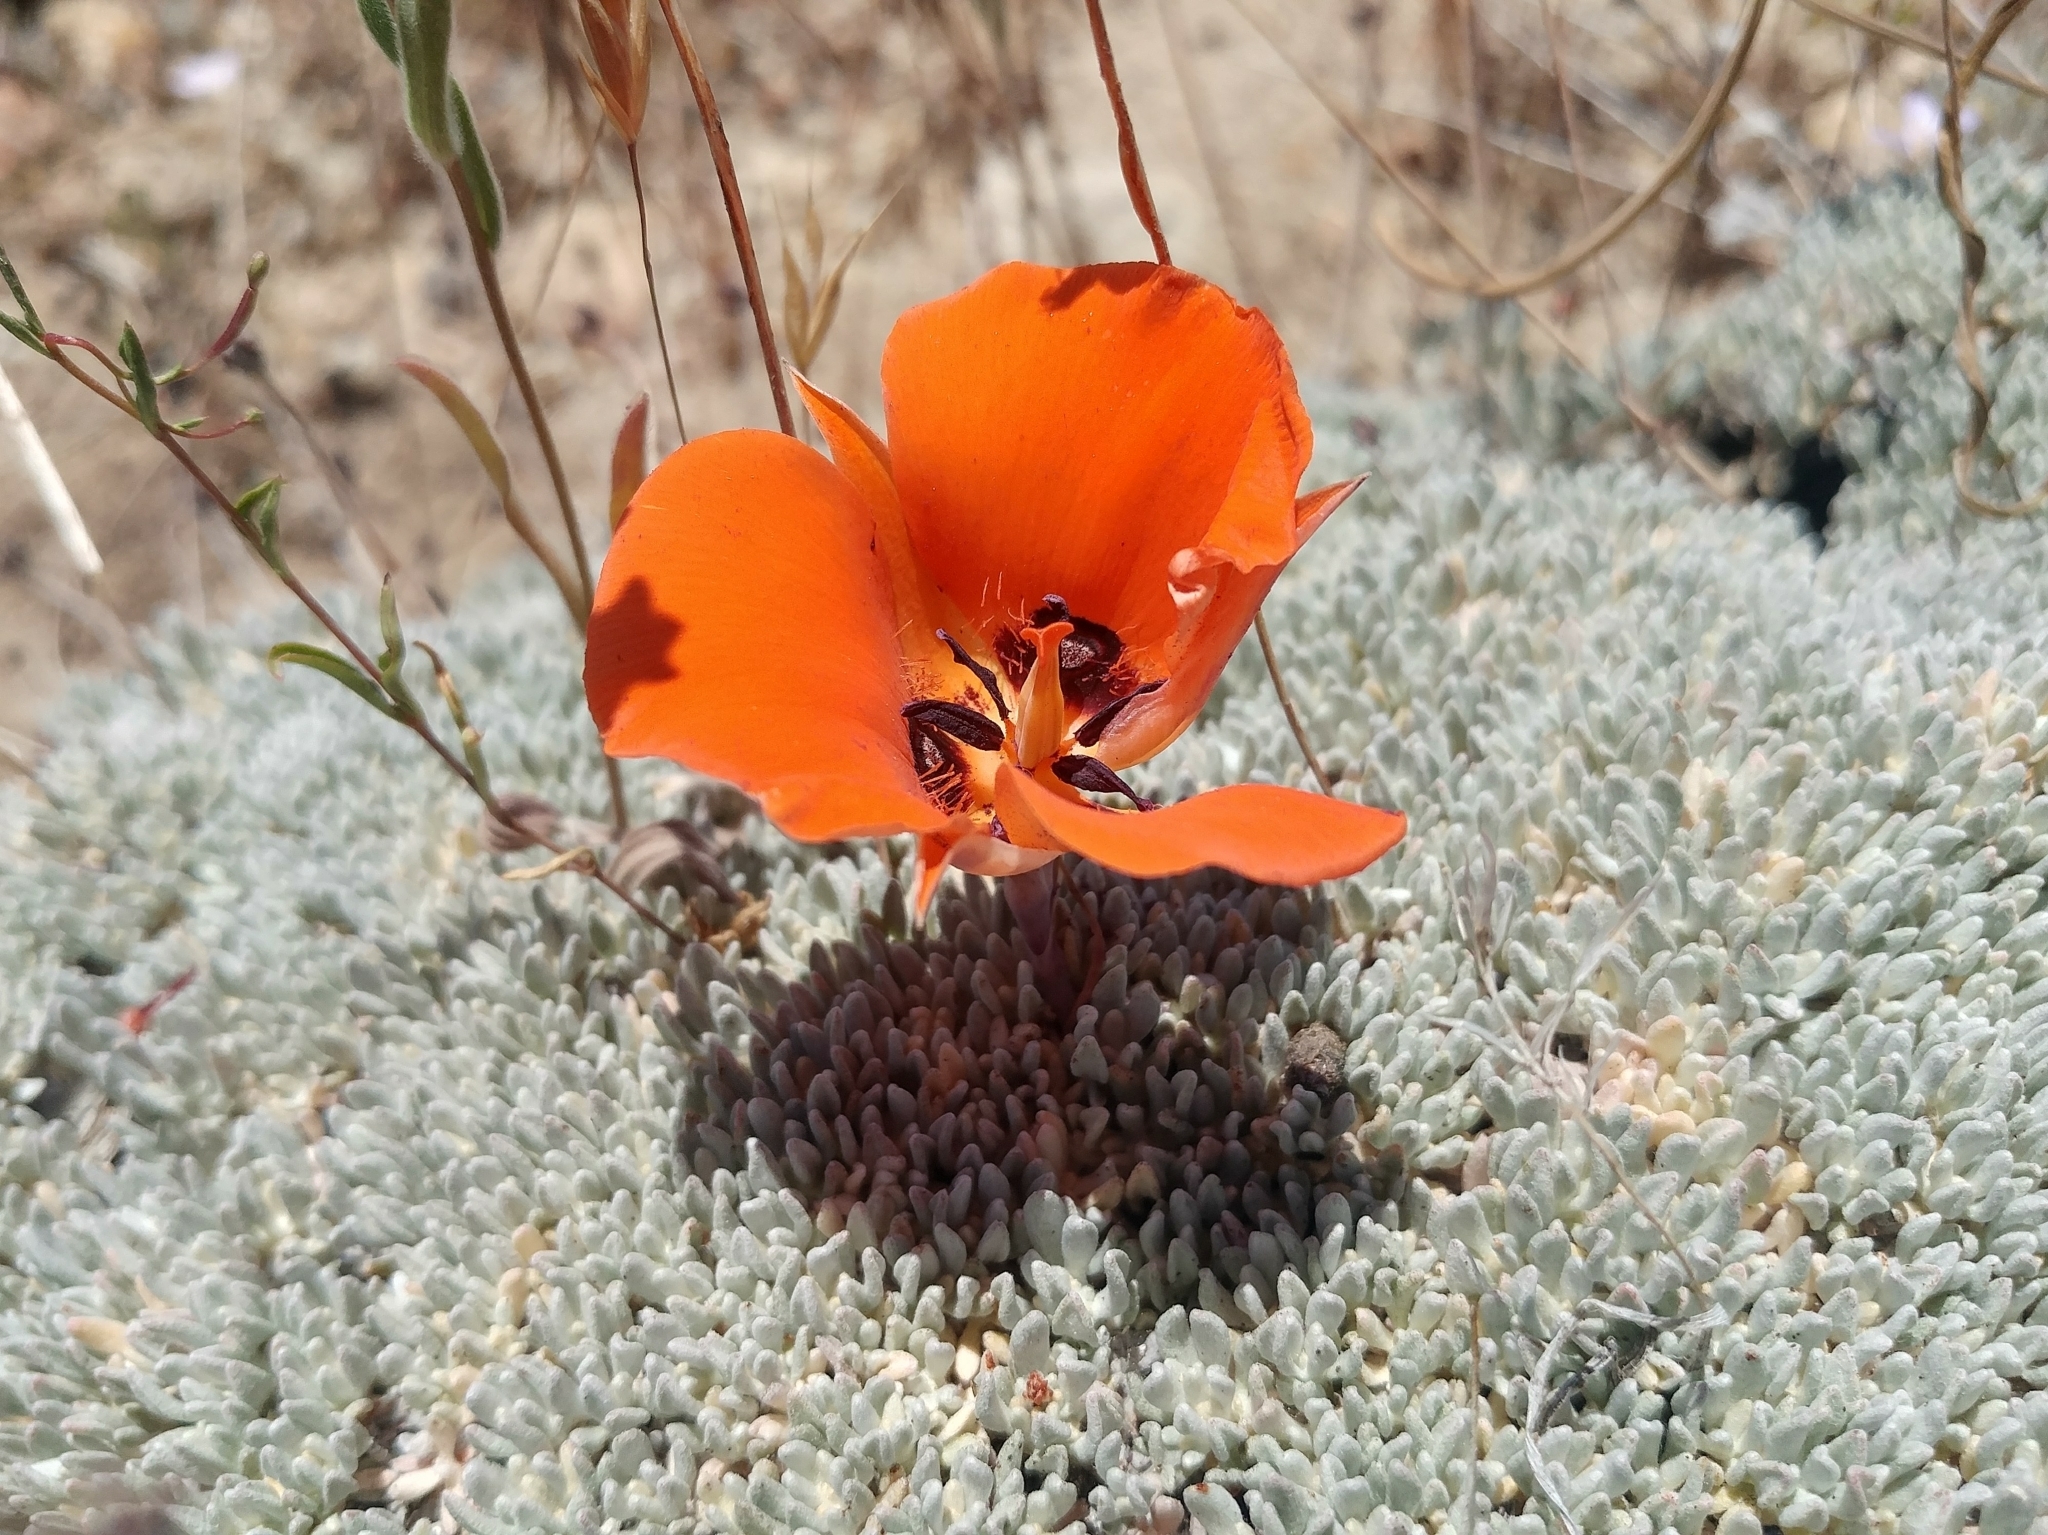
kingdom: Plantae
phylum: Tracheophyta
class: Liliopsida
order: Liliales
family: Liliaceae
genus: Calochortus
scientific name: Calochortus kennedyi
